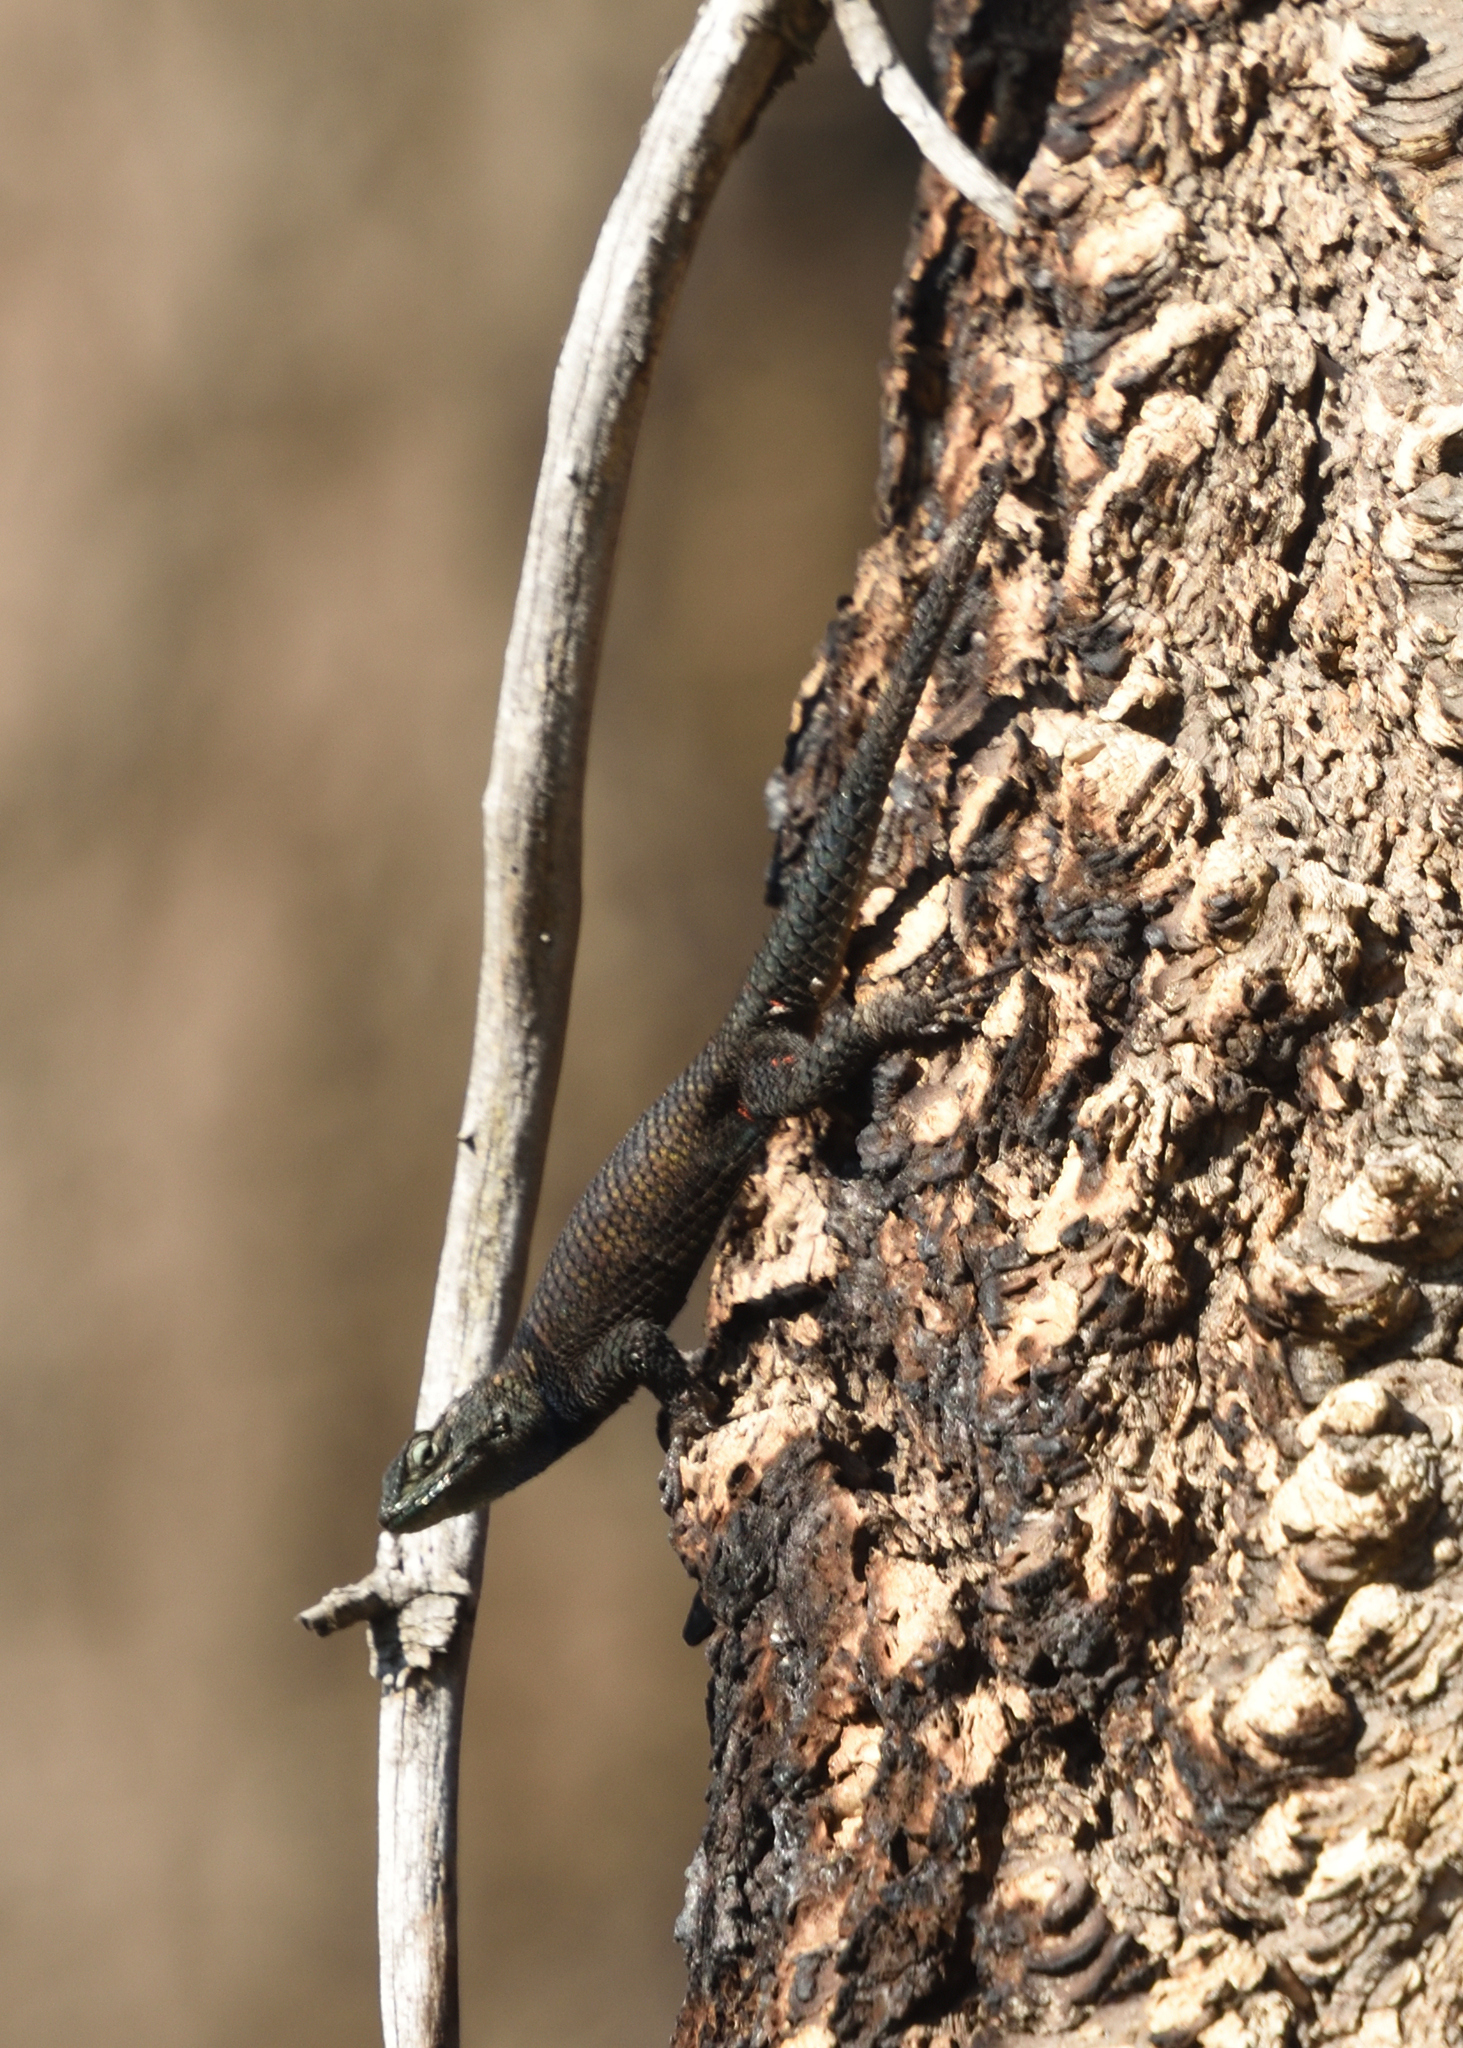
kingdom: Animalia
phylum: Chordata
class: Squamata
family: Phrynosomatidae
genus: Sceloporus
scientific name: Sceloporus jarrovii
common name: Yarrow's spiny lizard
